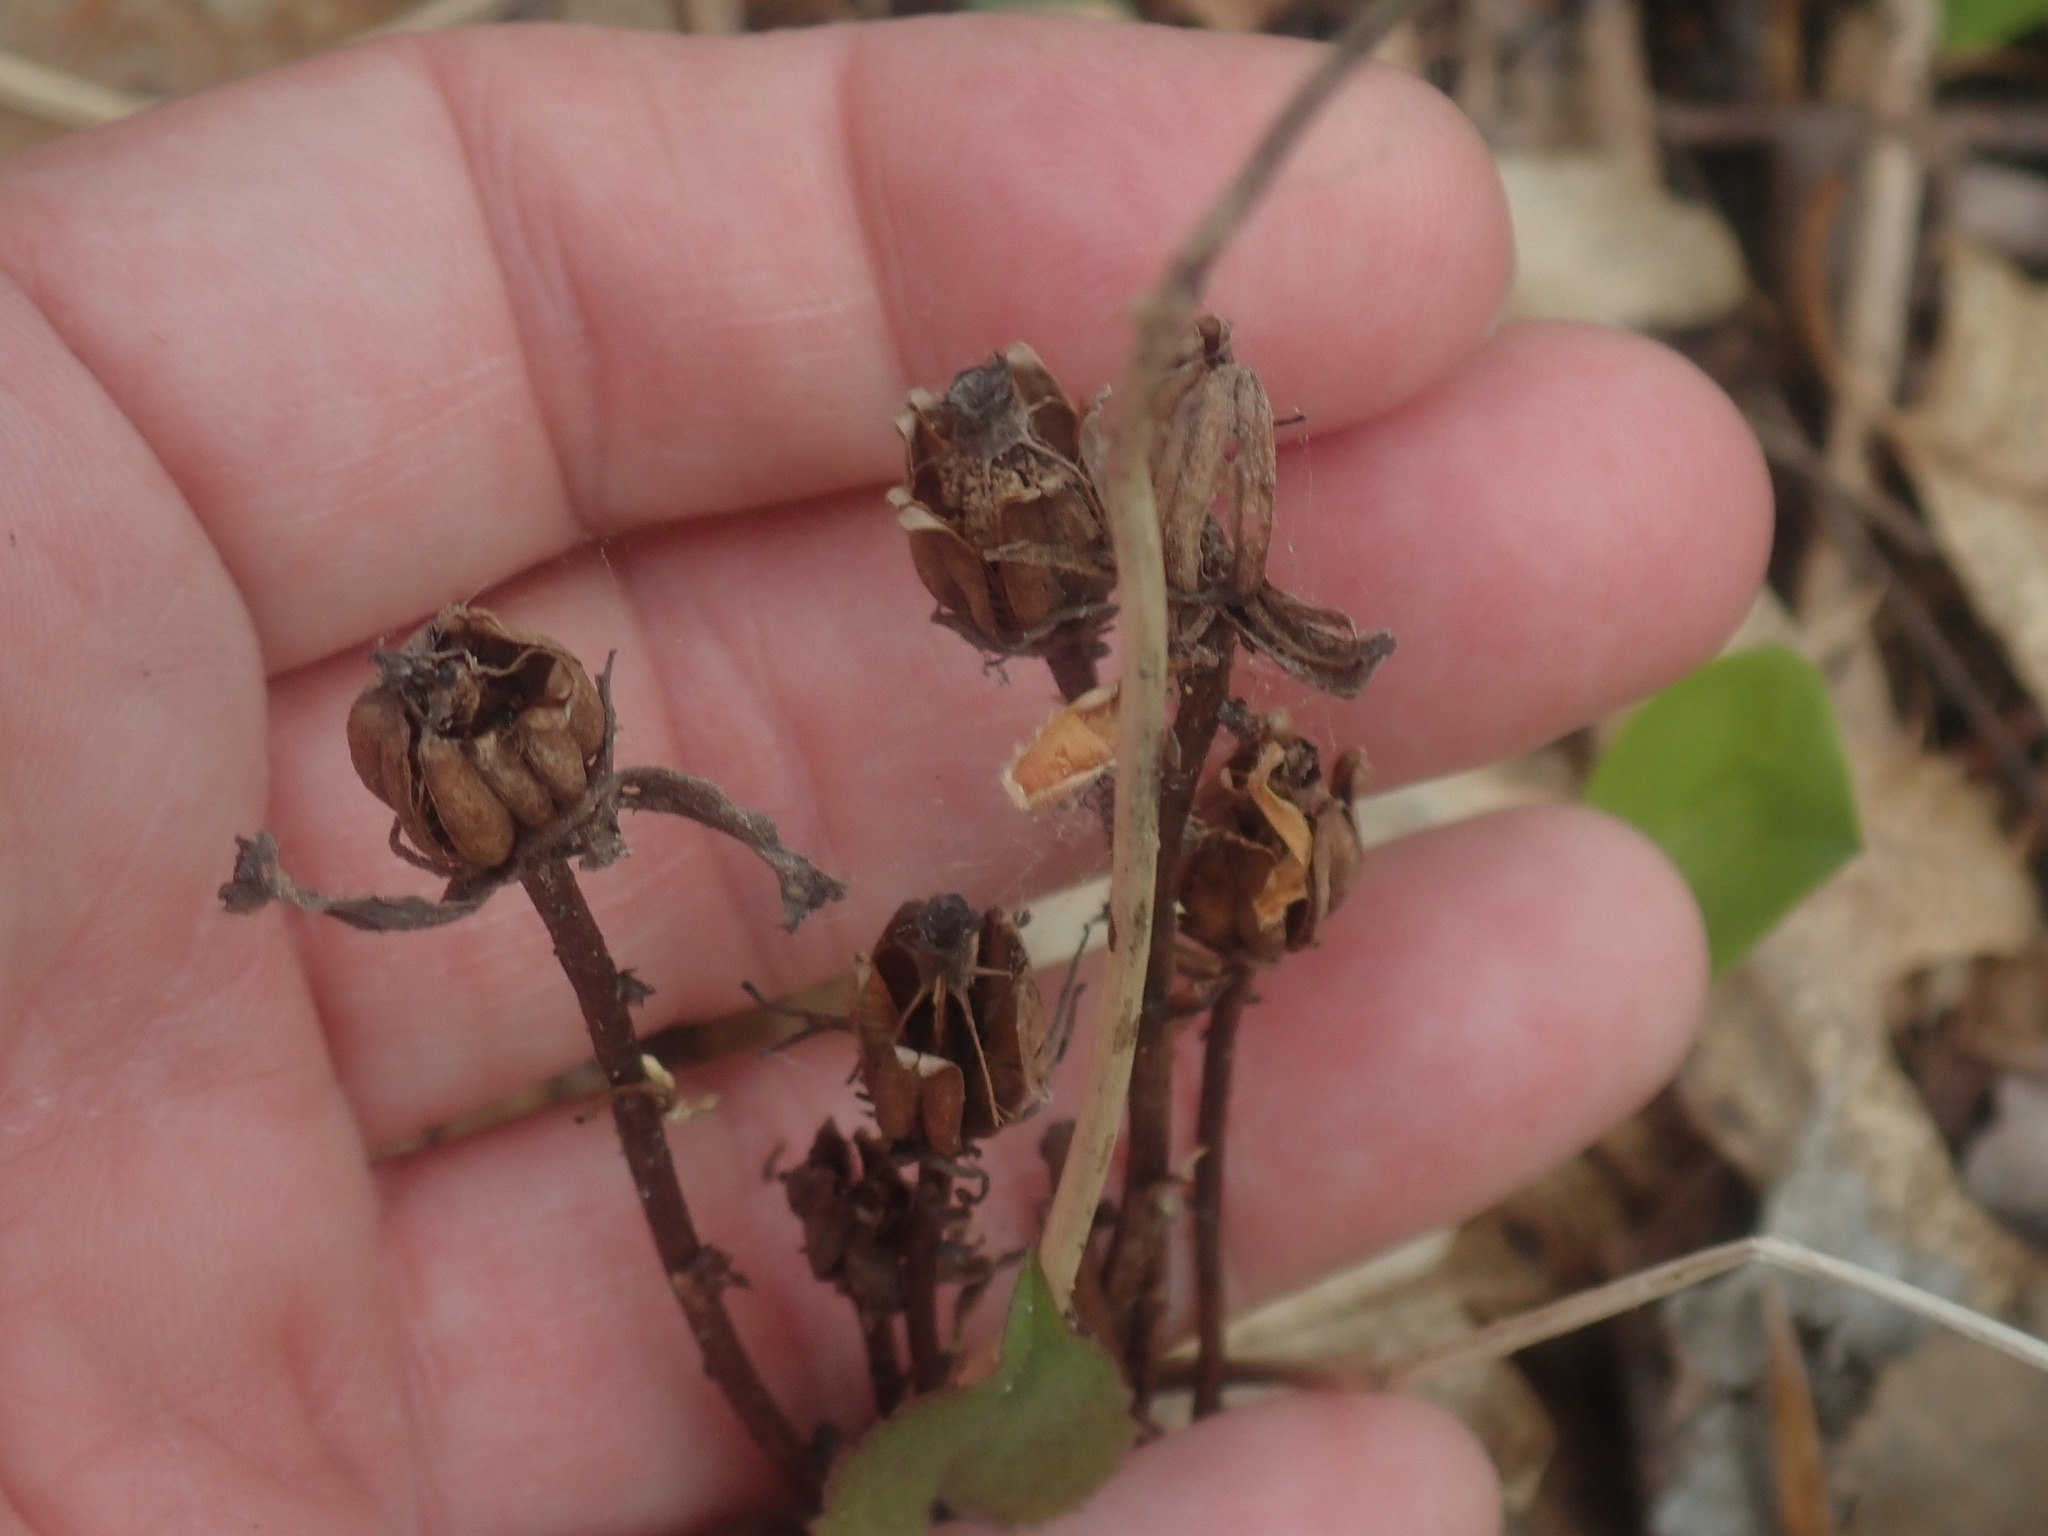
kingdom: Plantae
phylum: Tracheophyta
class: Magnoliopsida
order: Ericales
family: Ericaceae
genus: Monotropa
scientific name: Monotropa uniflora
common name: Convulsion root
